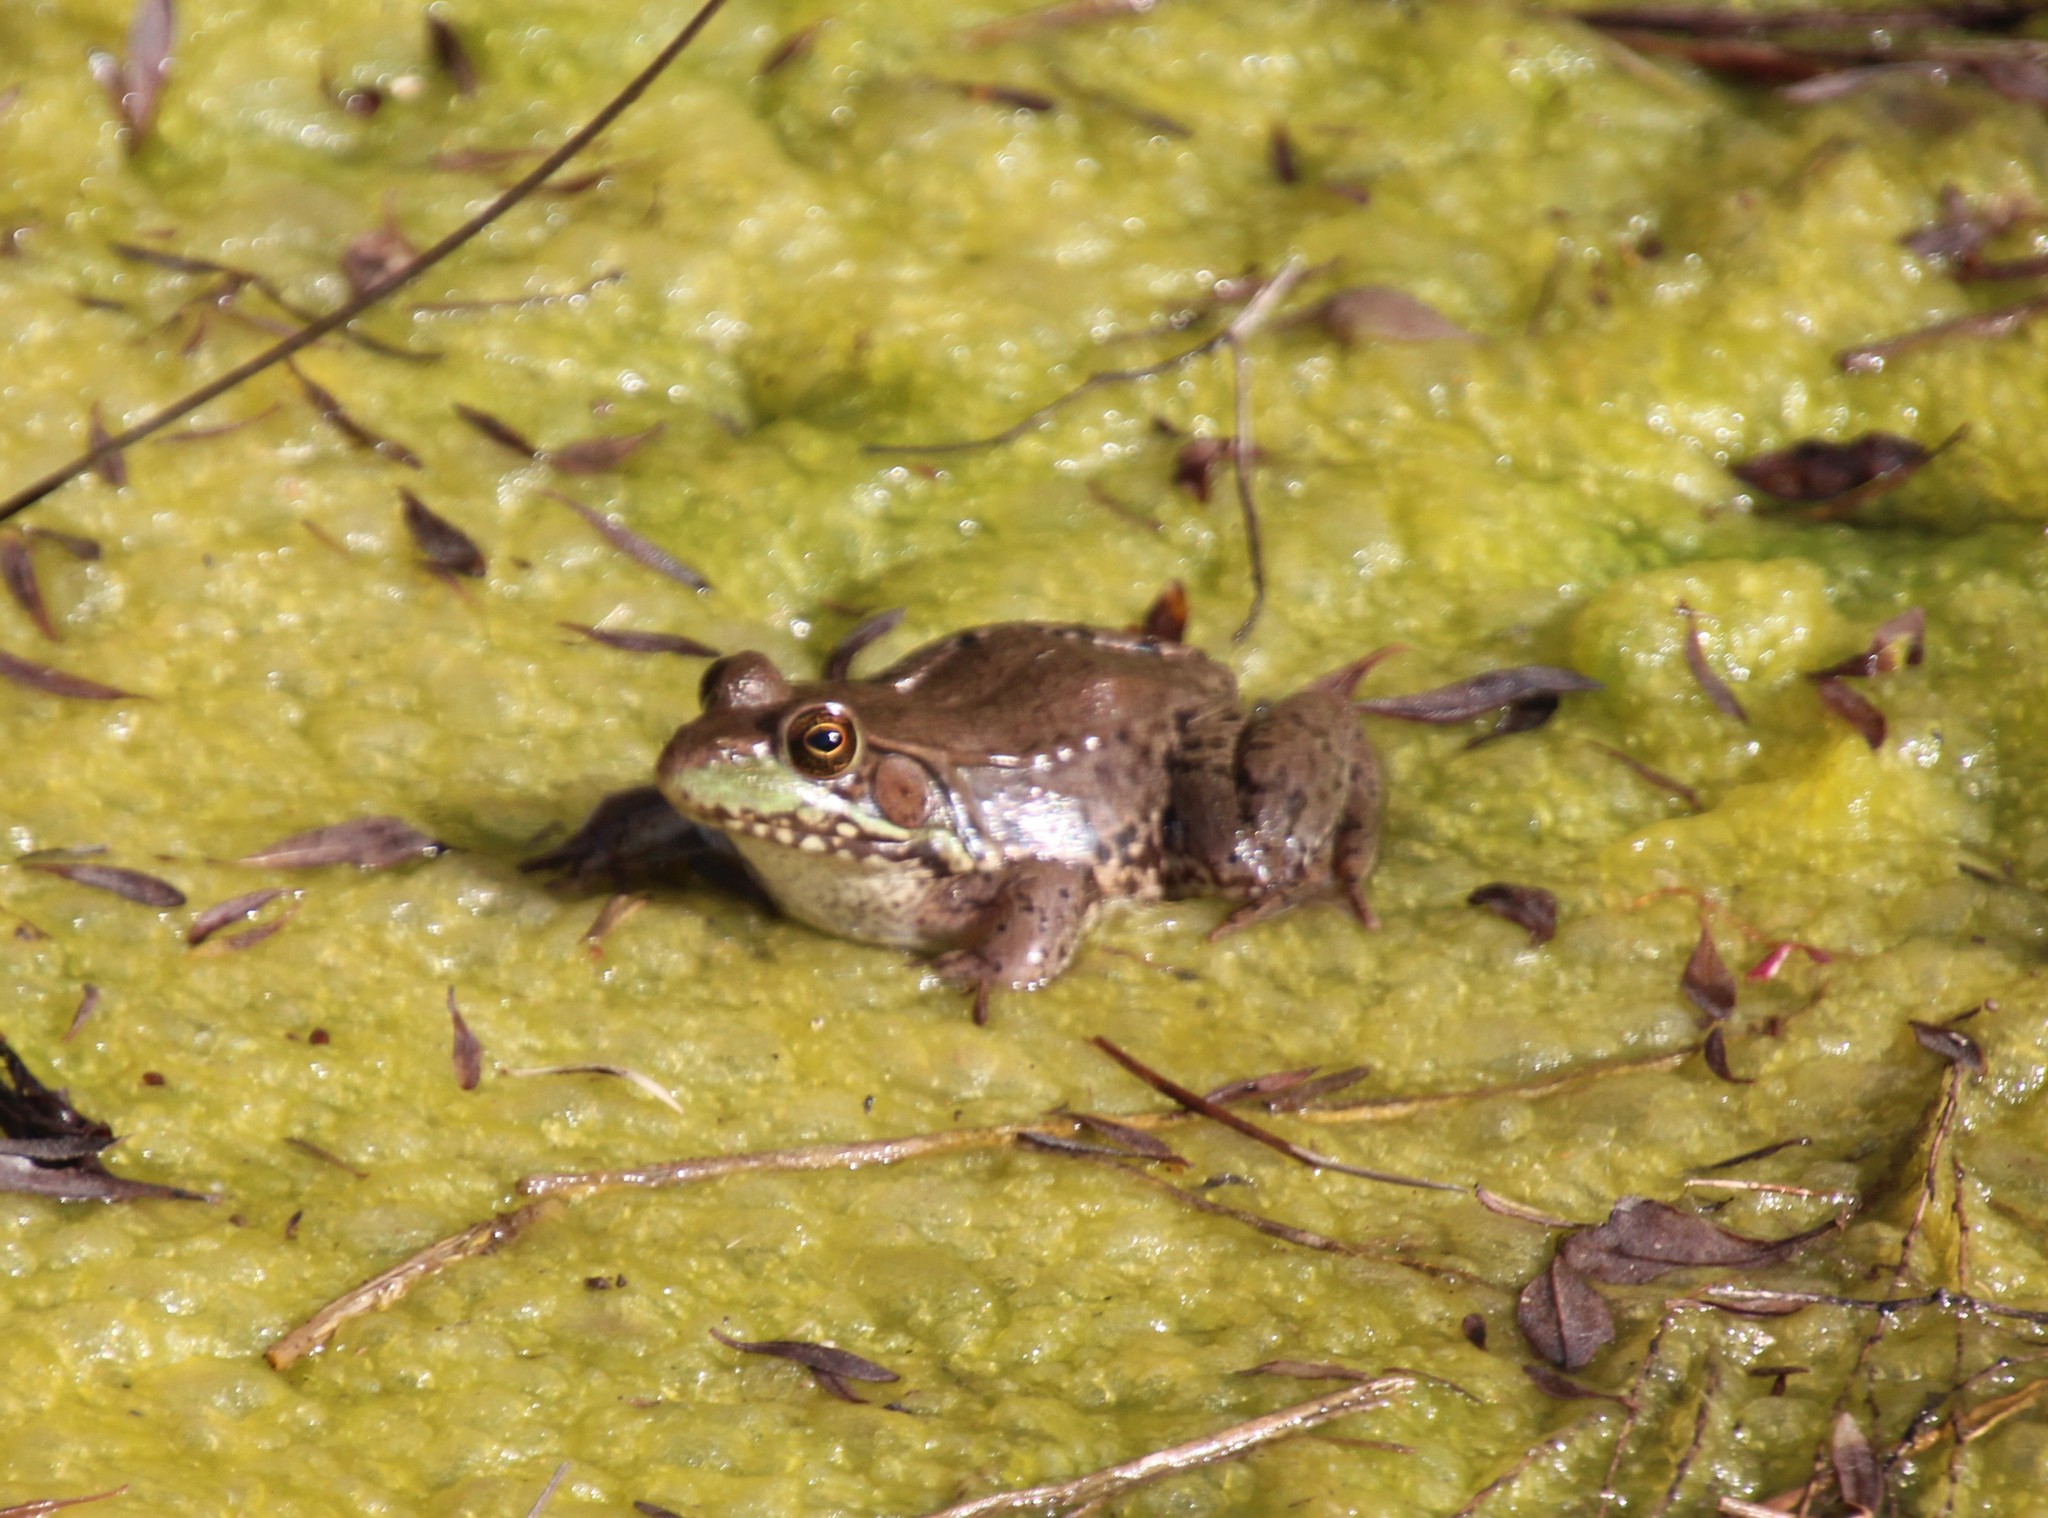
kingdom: Animalia
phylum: Chordata
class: Amphibia
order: Anura
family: Ranidae
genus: Lithobates
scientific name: Lithobates clamitans
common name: Green frog
